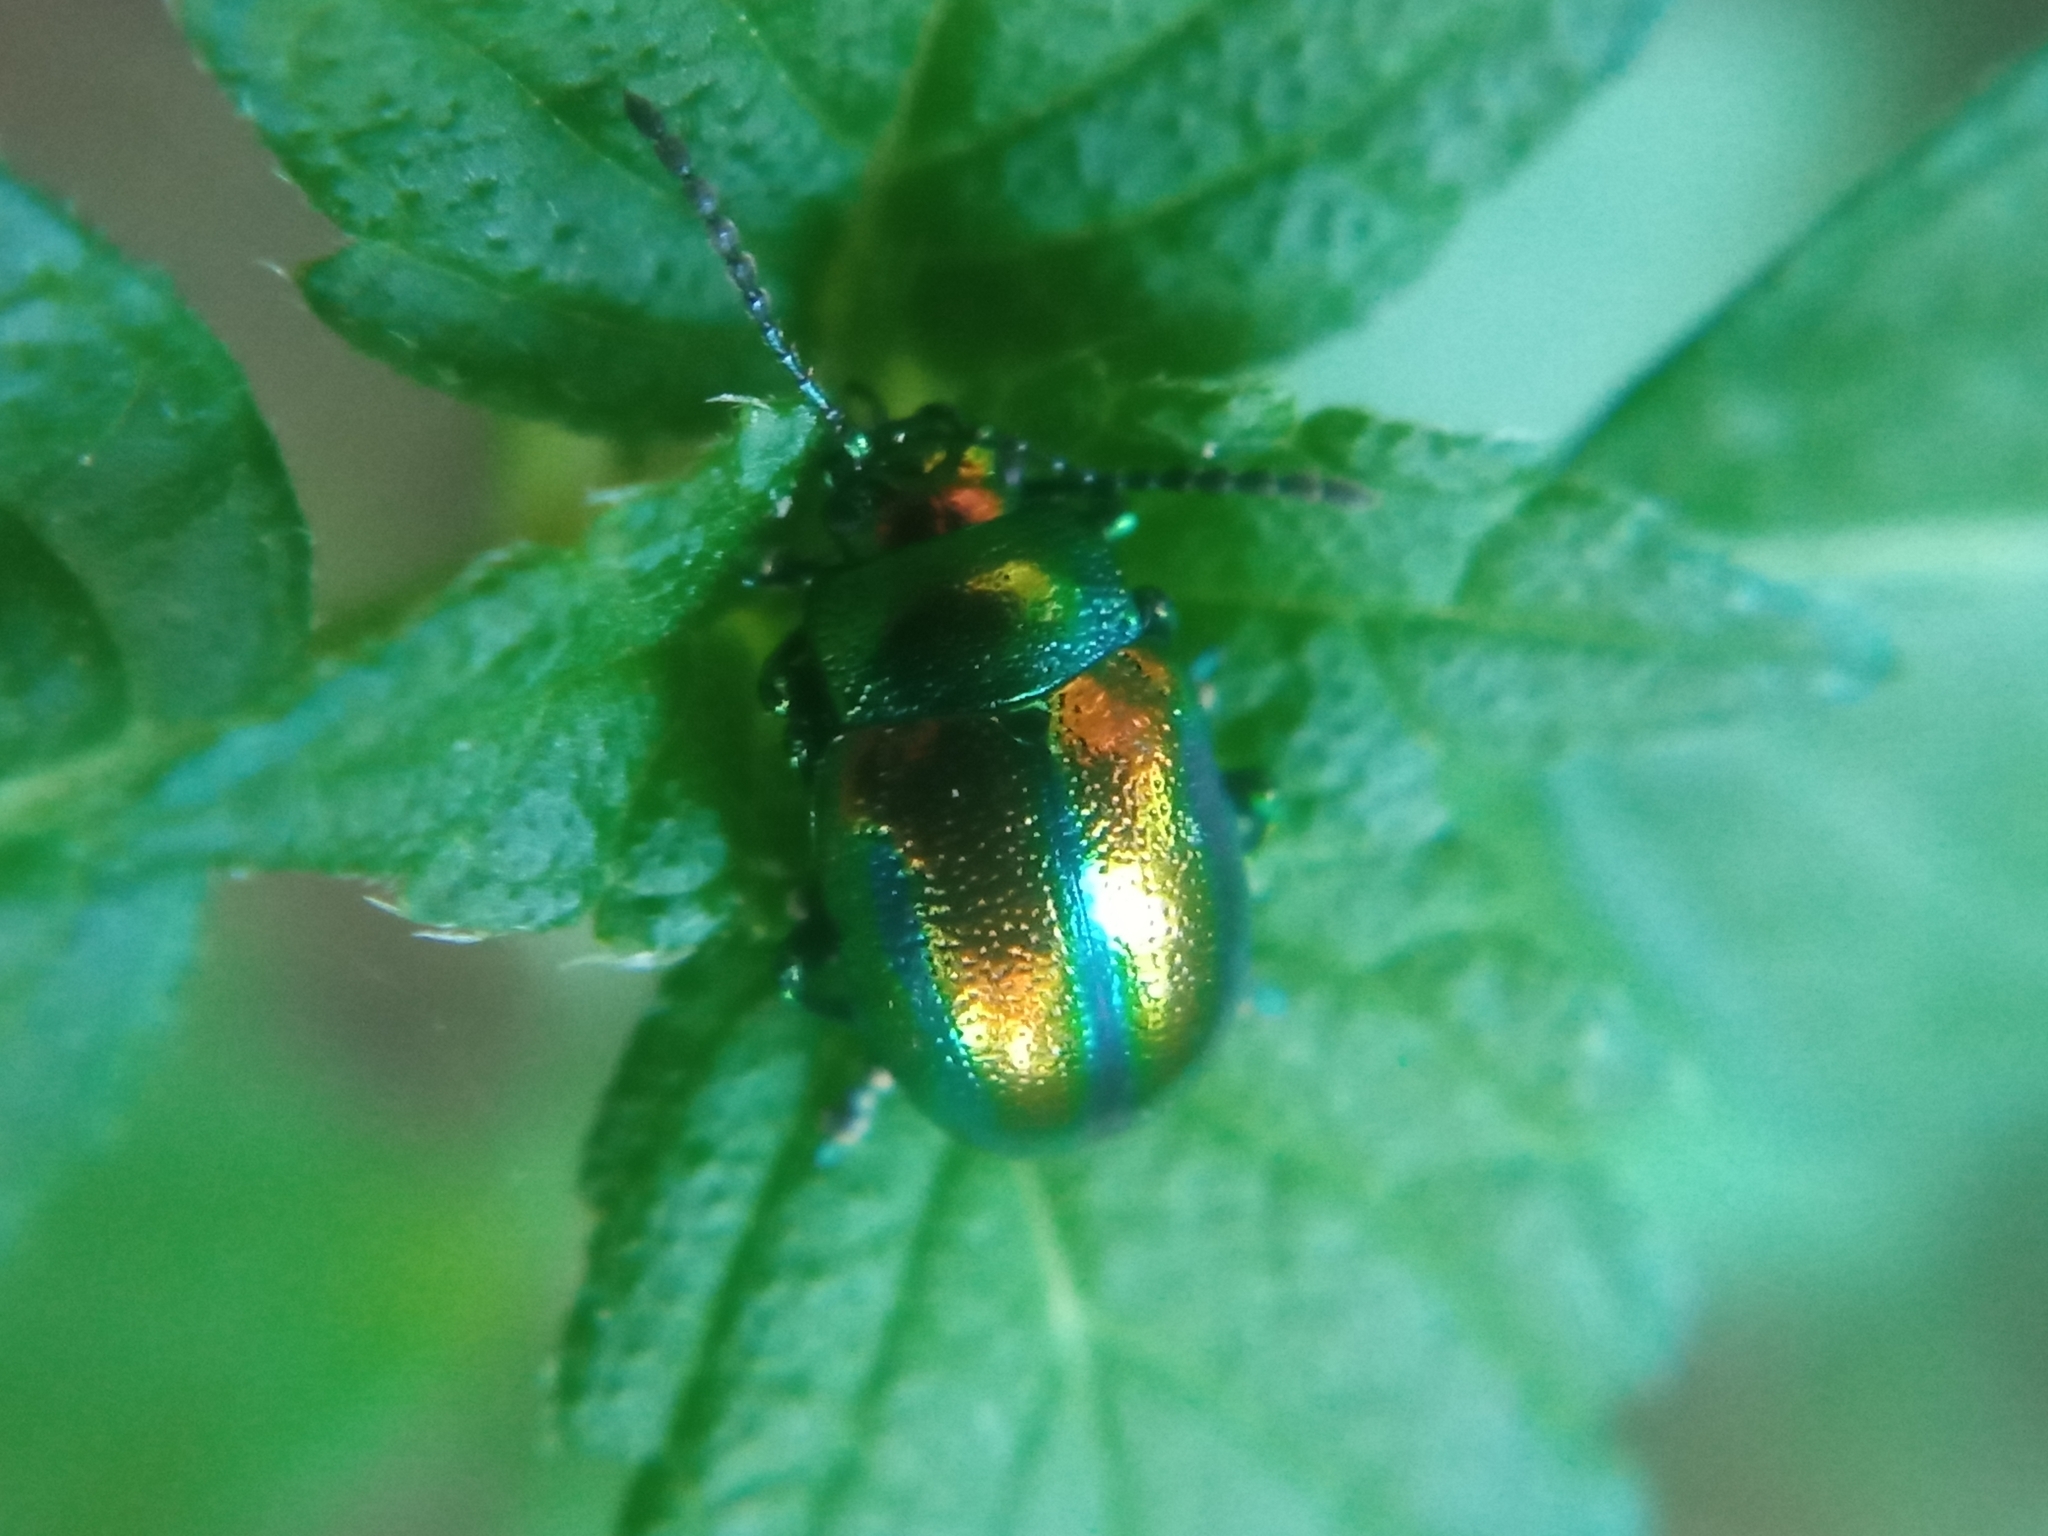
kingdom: Animalia
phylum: Arthropoda
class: Insecta
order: Coleoptera
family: Chrysomelidae
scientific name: Chrysomelidae
